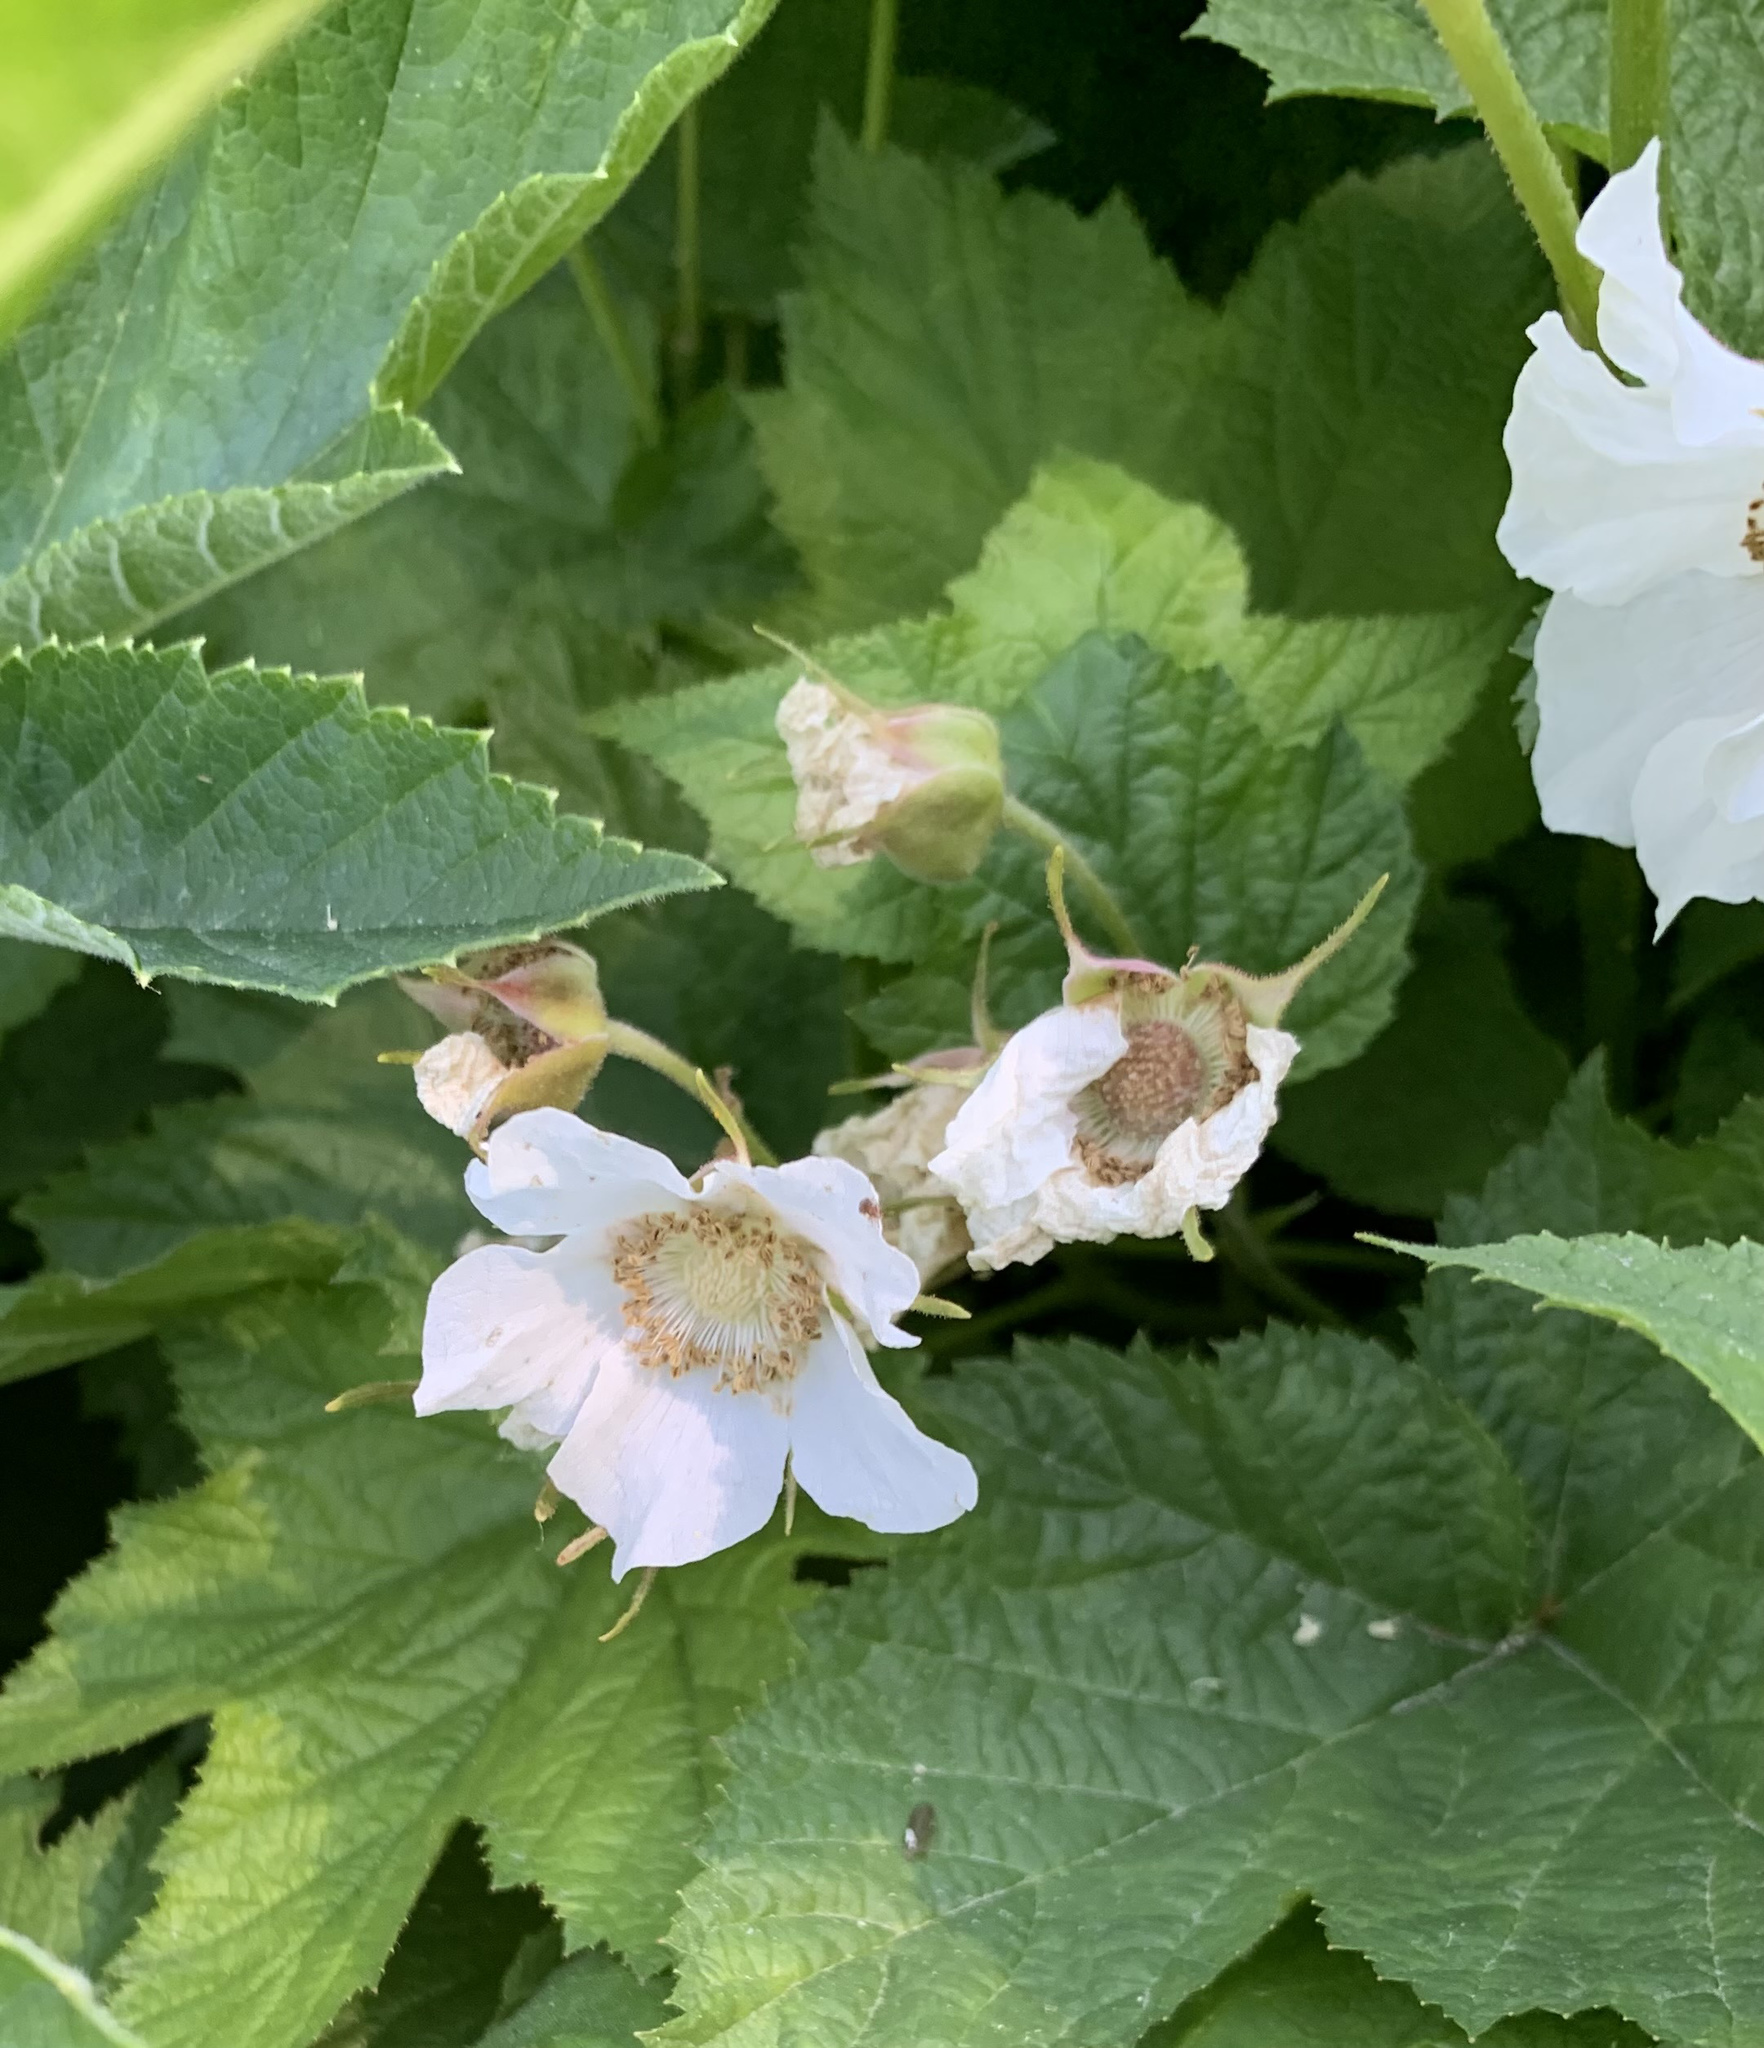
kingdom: Plantae
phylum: Tracheophyta
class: Magnoliopsida
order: Rosales
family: Rosaceae
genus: Rubus
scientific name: Rubus parviflorus
